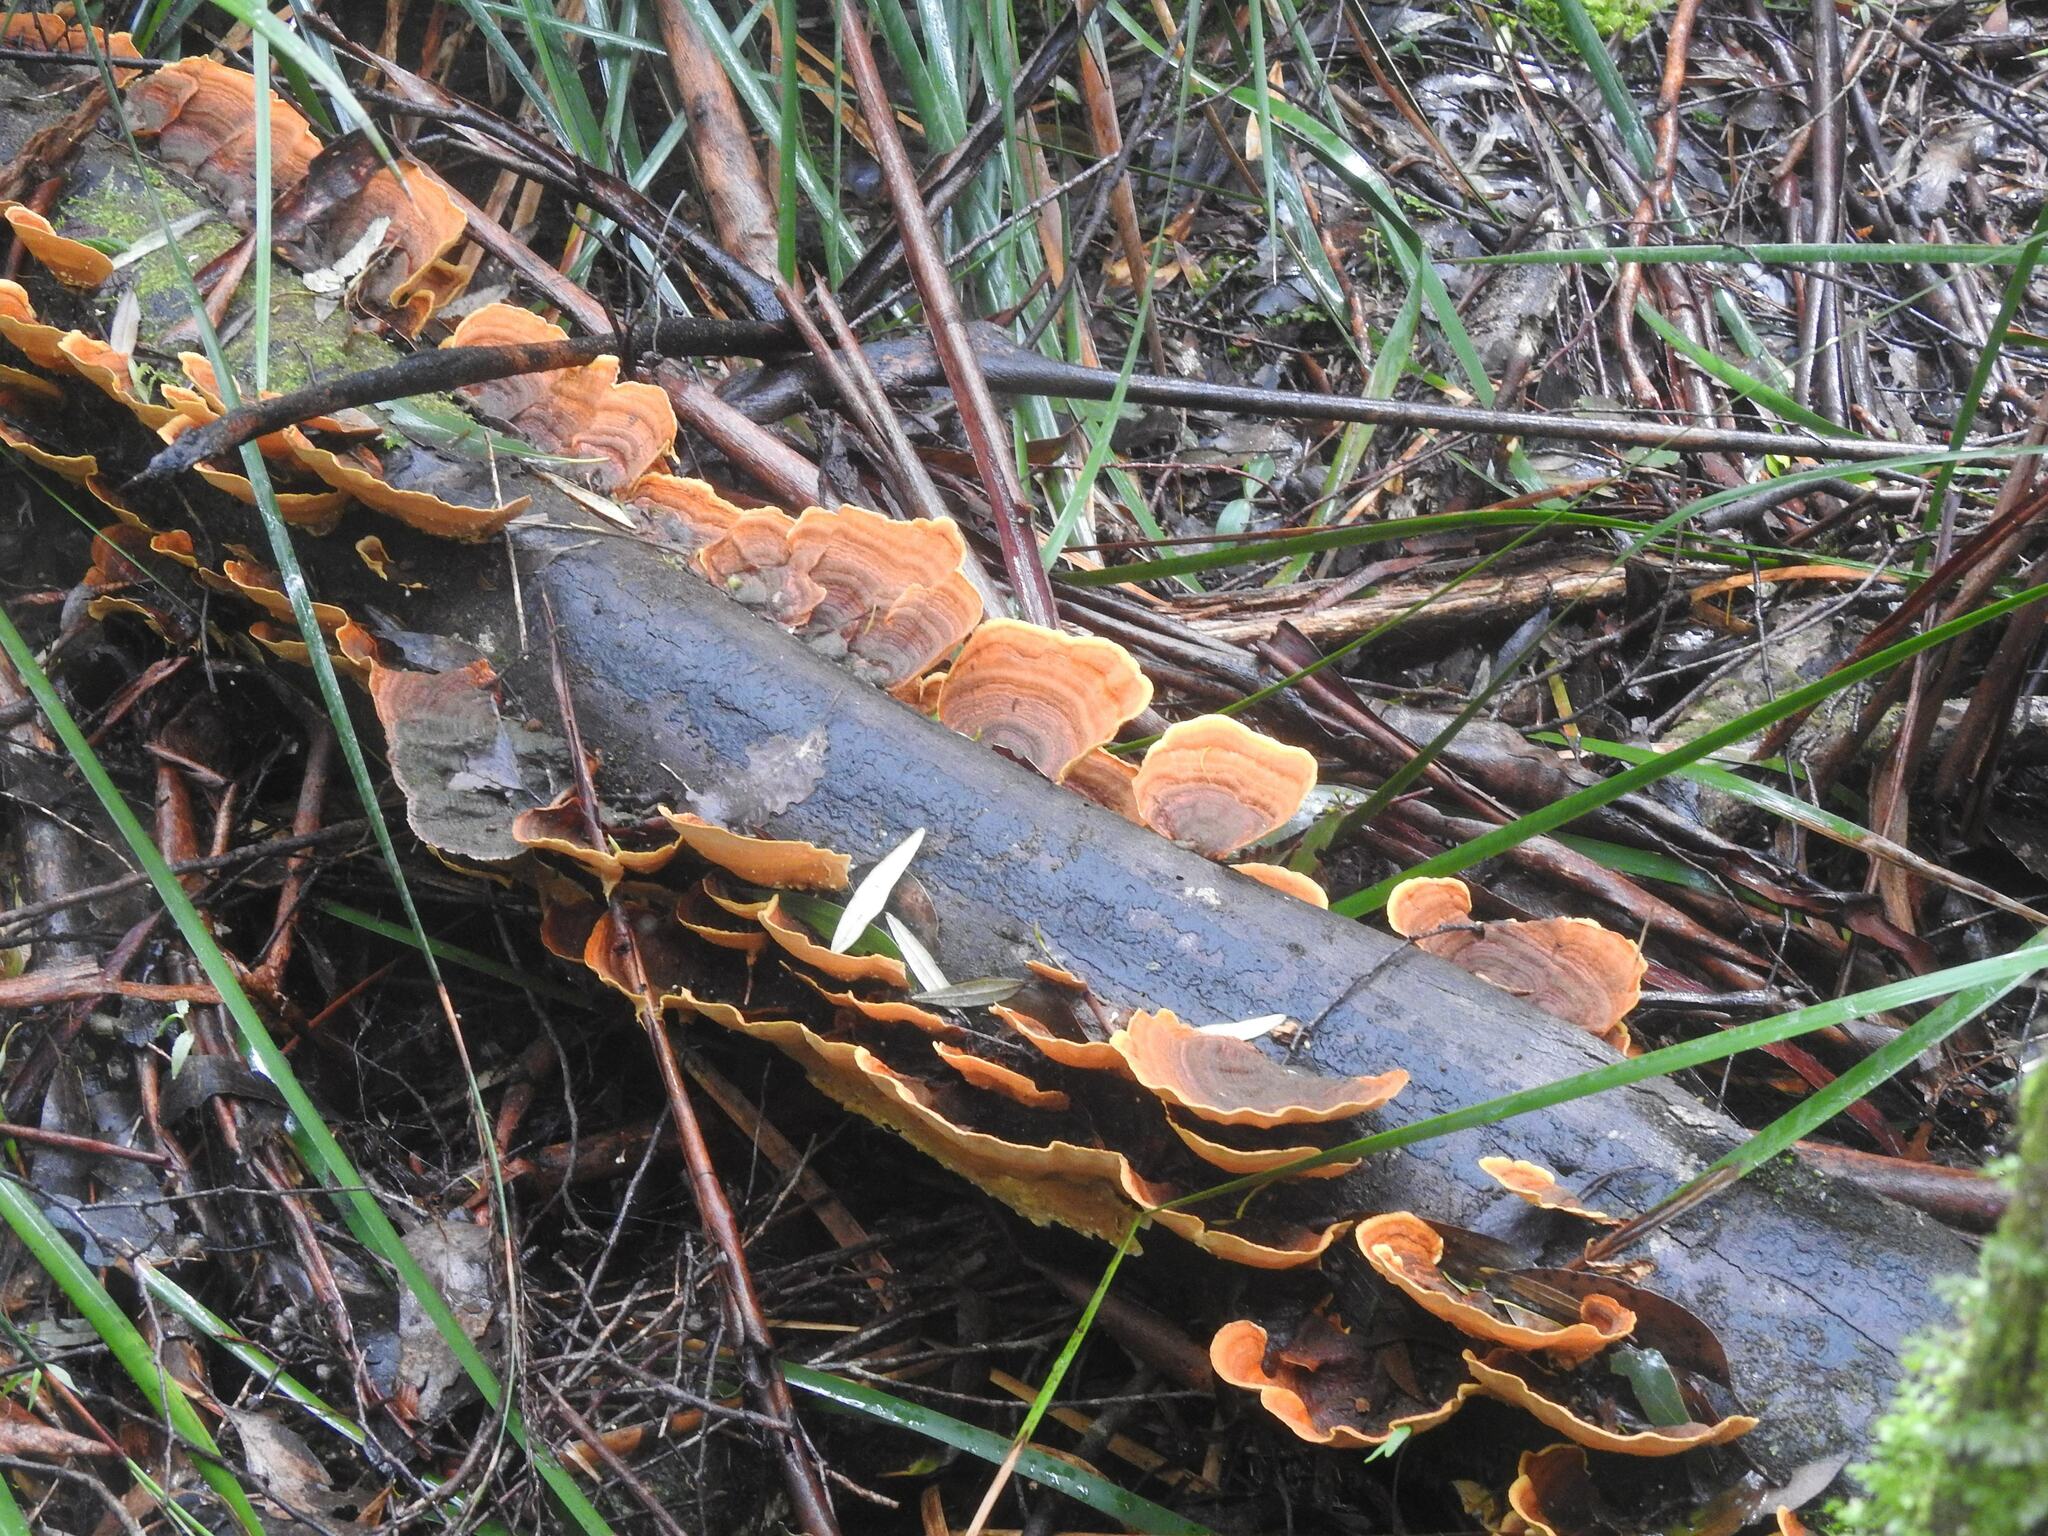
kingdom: Fungi
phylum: Basidiomycota
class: Agaricomycetes
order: Russulales
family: Stereaceae
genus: Stereum
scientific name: Stereum ostrea
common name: False turkeytail
